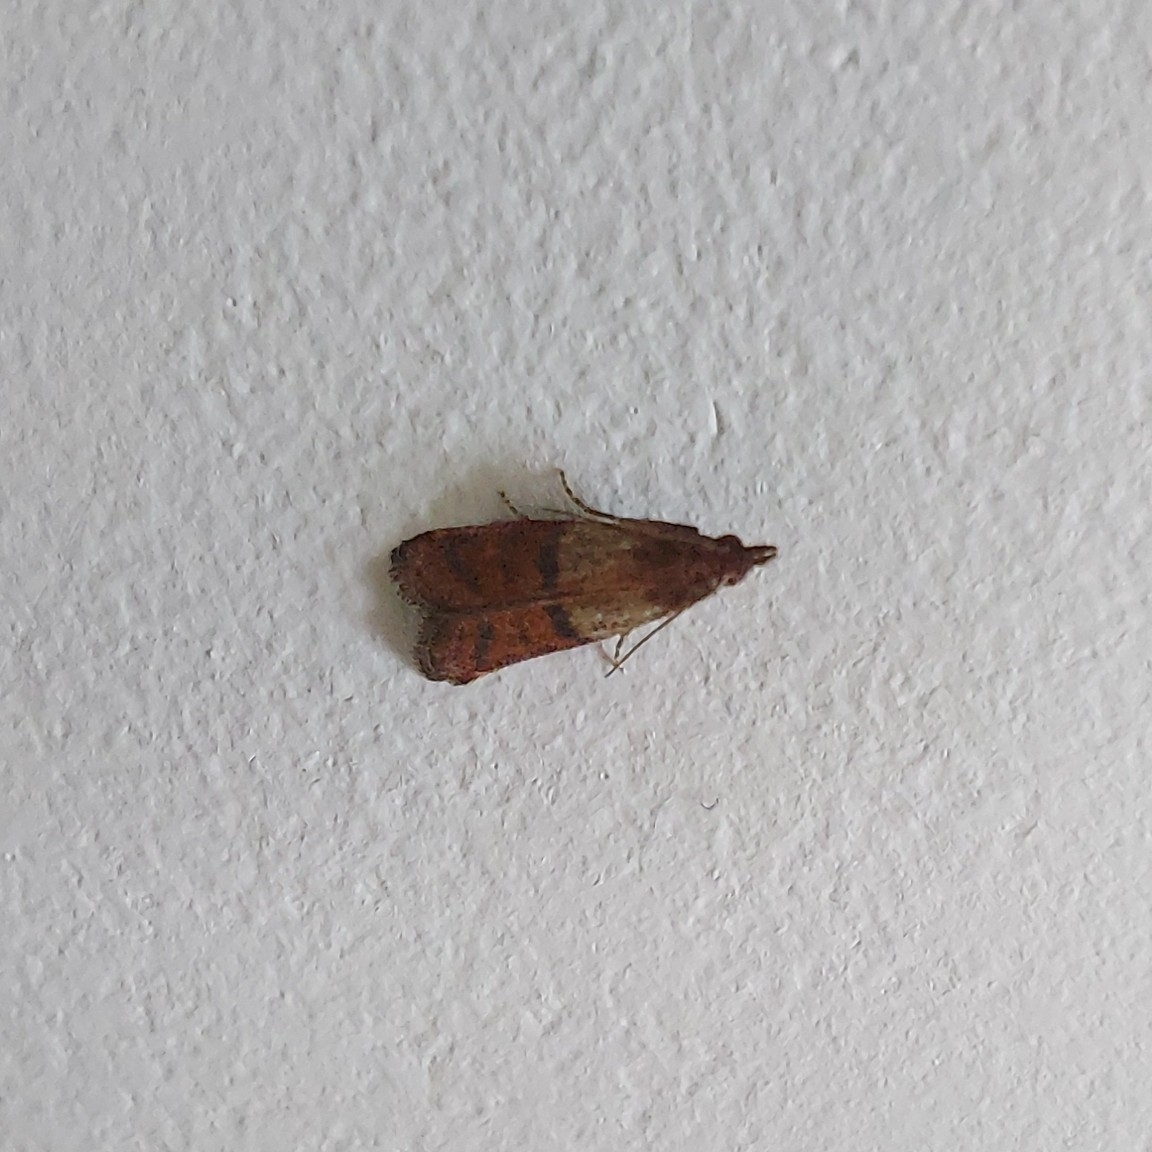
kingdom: Animalia
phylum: Arthropoda
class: Insecta
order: Lepidoptera
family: Pyralidae
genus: Plodia
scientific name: Plodia interpunctella
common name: Indian meal moth
